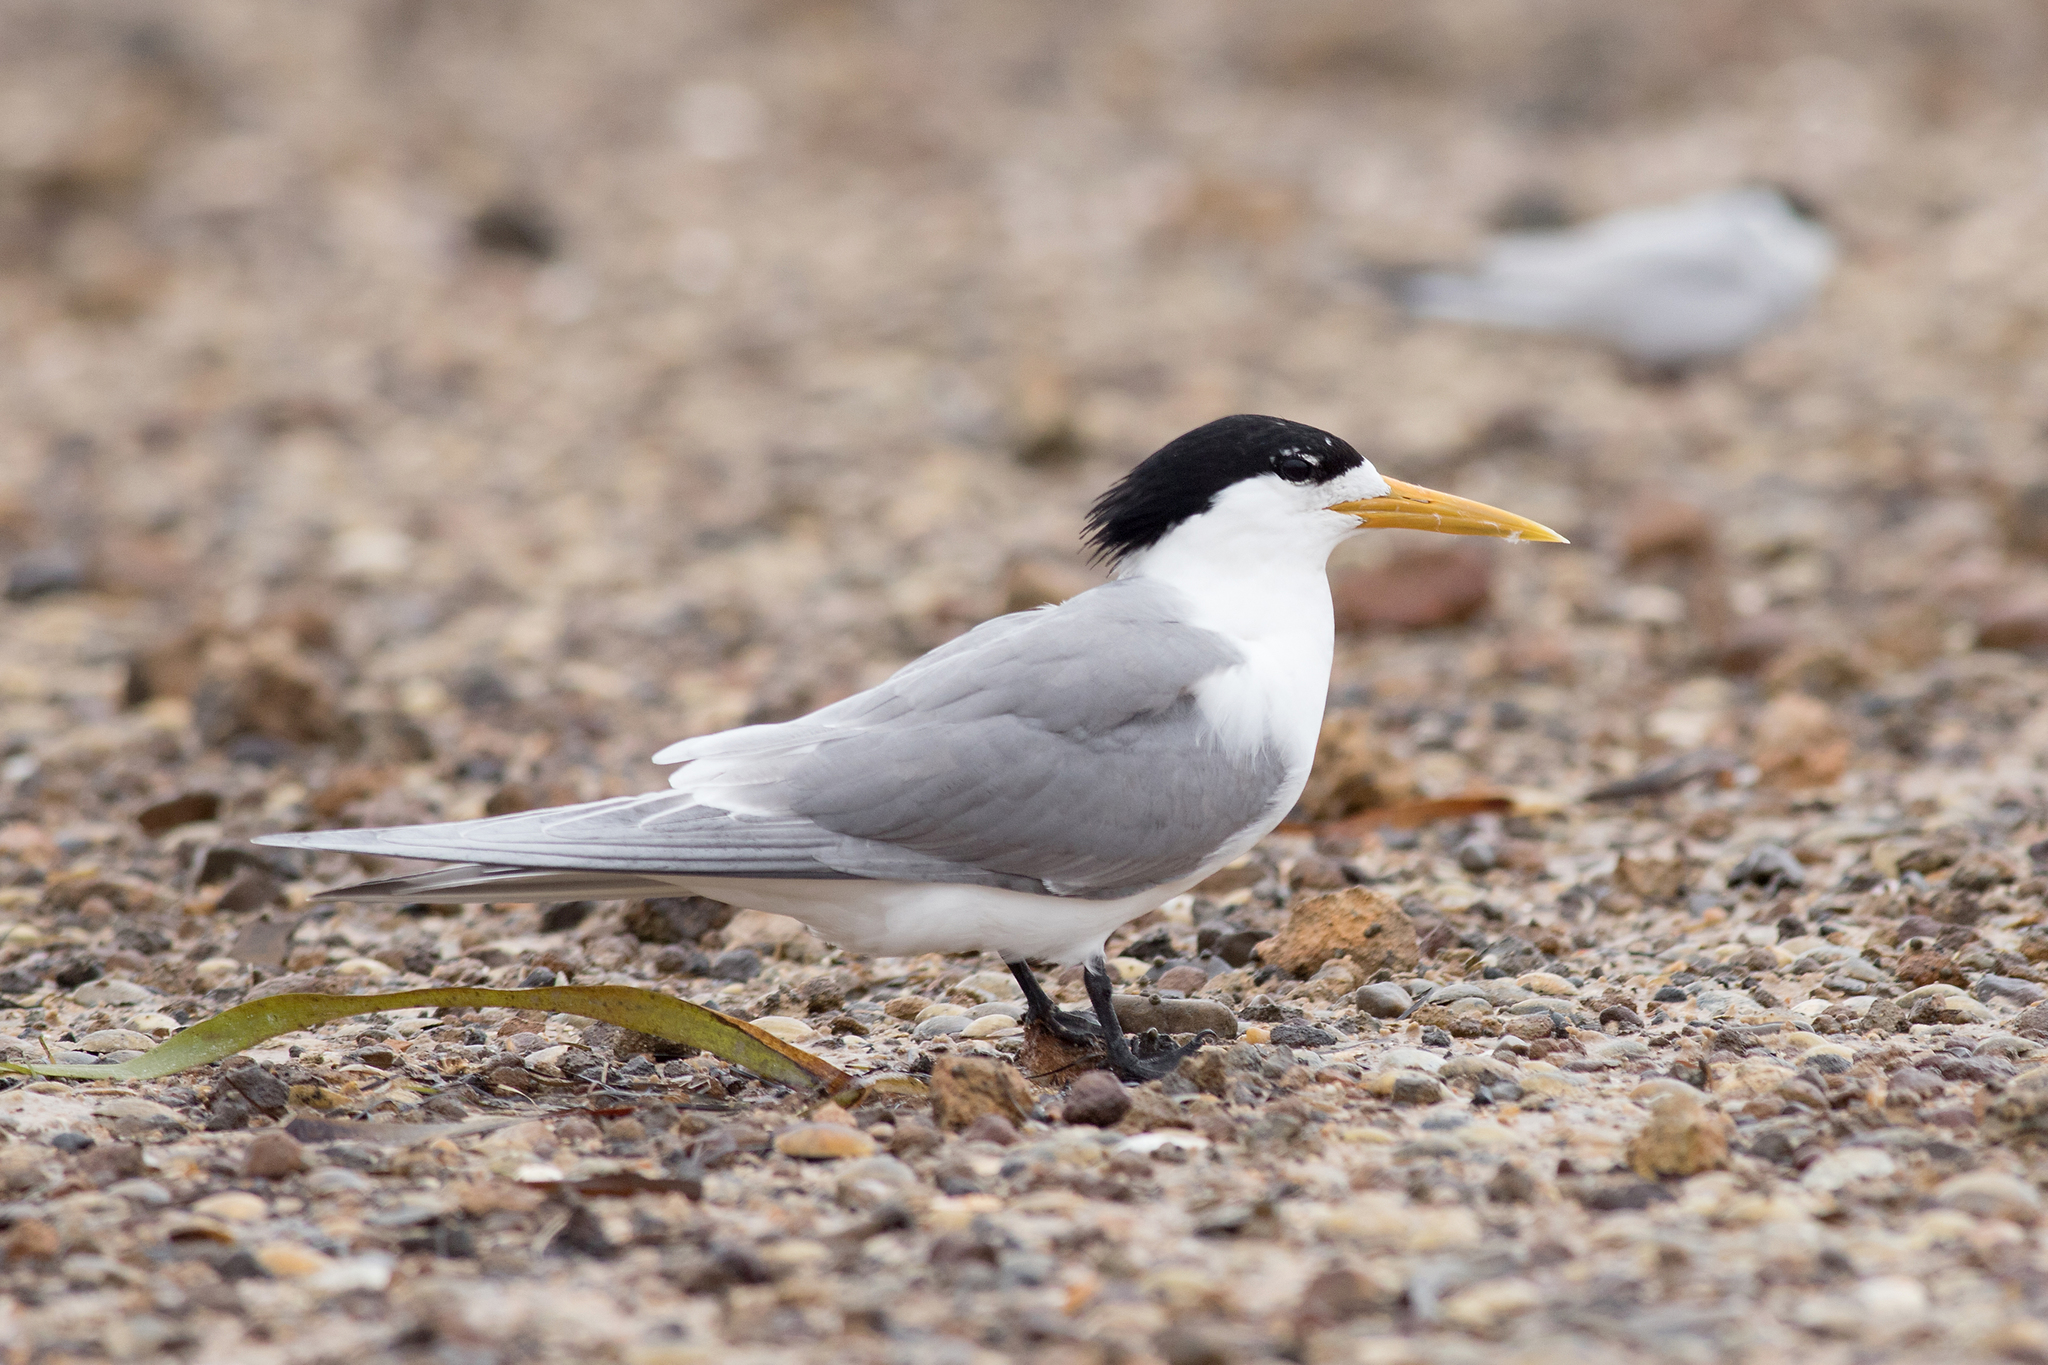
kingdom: Animalia
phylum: Chordata
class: Aves
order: Charadriiformes
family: Laridae
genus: Thalasseus
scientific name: Thalasseus bergii
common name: Greater crested tern
